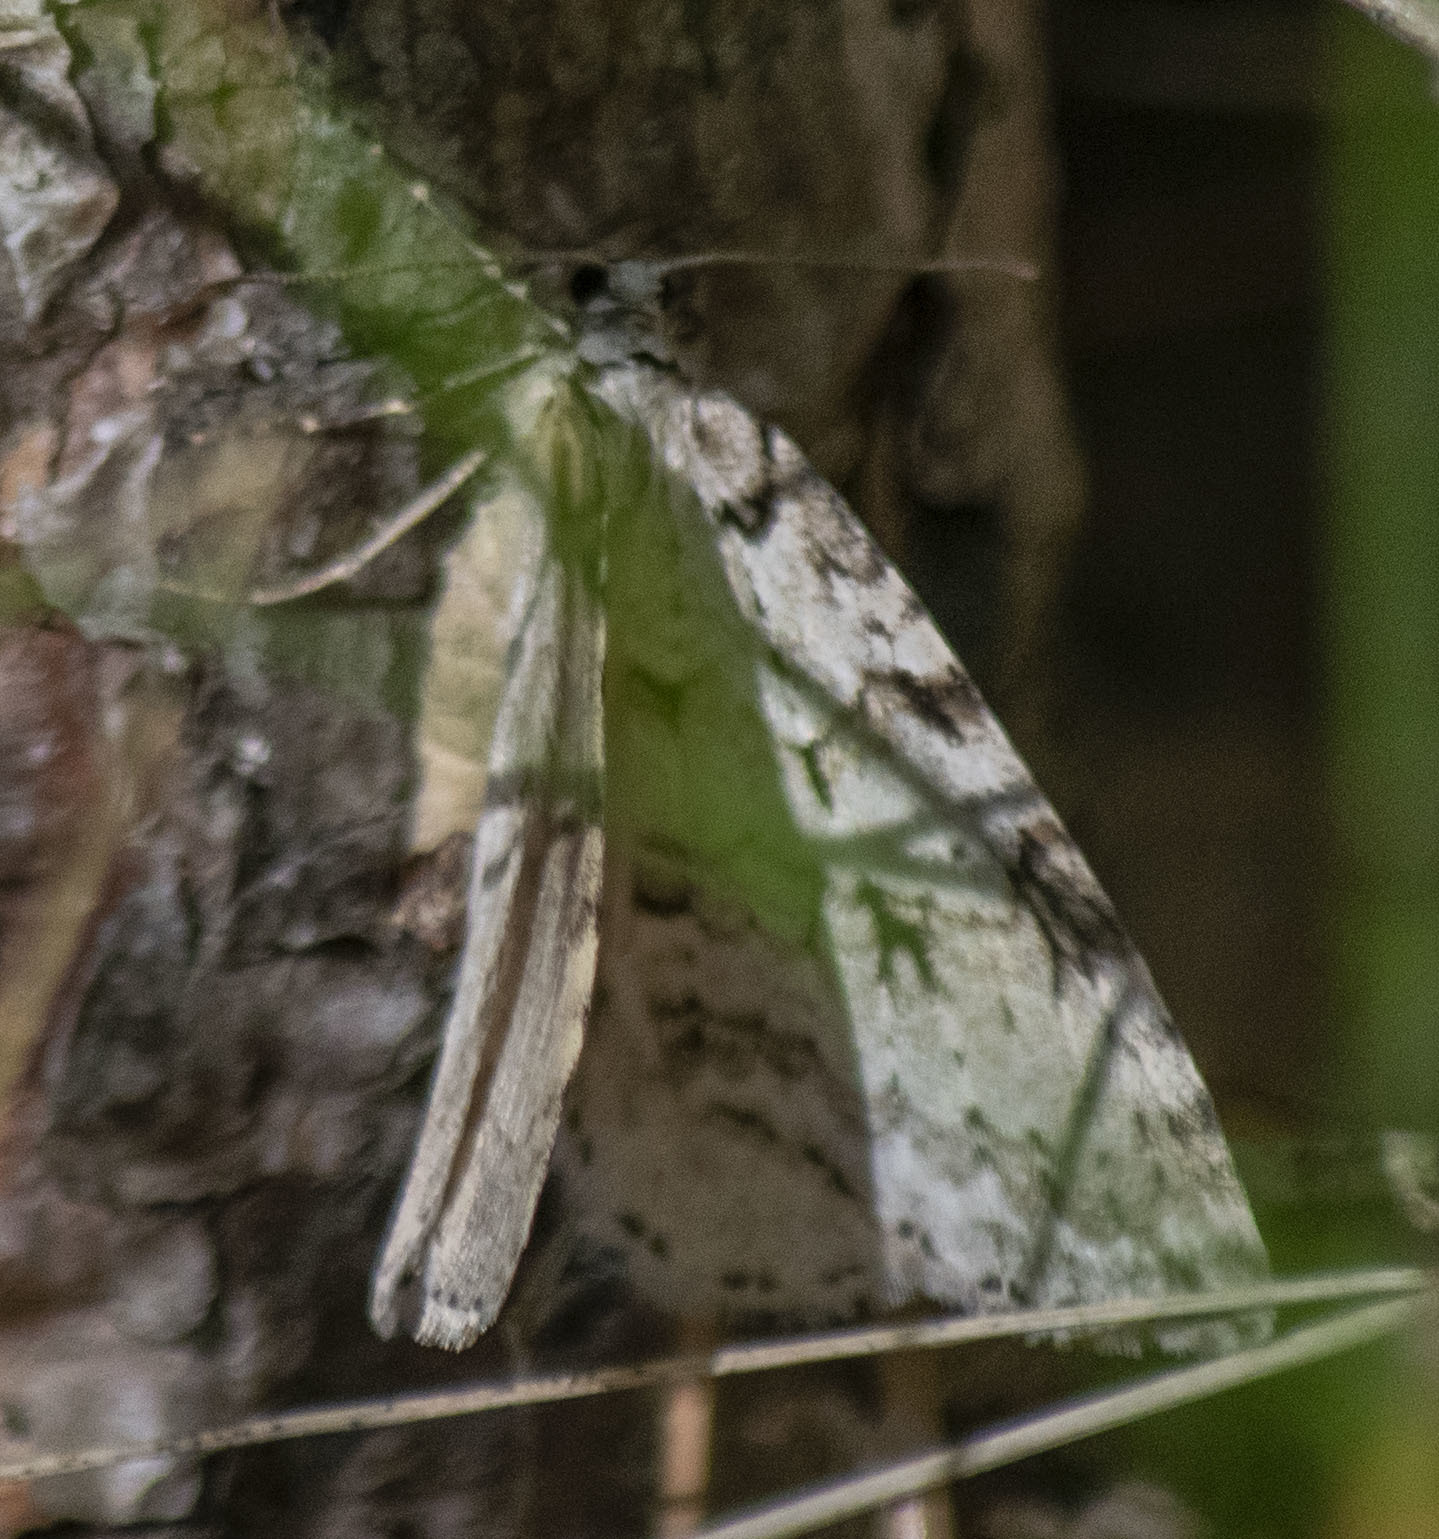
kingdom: Animalia
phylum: Arthropoda
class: Insecta
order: Lepidoptera
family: Geometridae
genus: Epirrita
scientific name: Epirrita autumnata
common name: Autumnal moth
